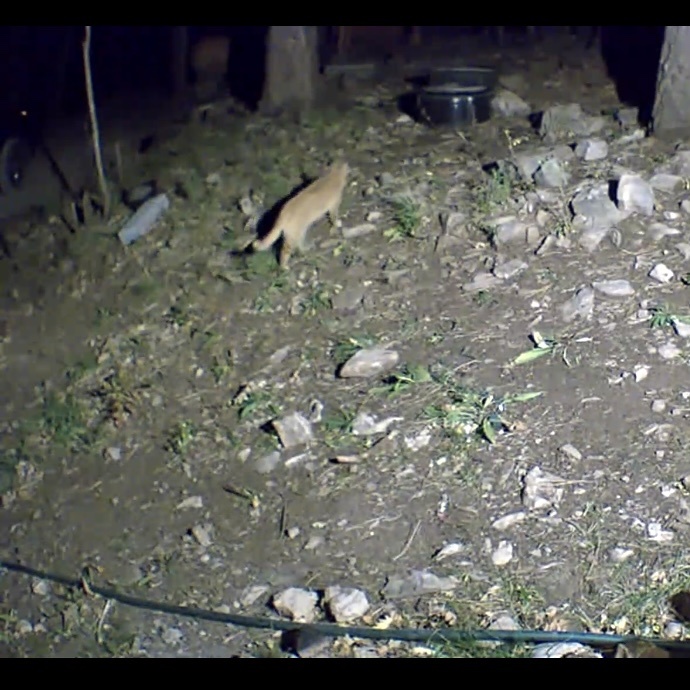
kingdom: Animalia
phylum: Chordata
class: Mammalia
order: Carnivora
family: Felidae
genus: Felis
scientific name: Felis catus
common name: Domestic cat
